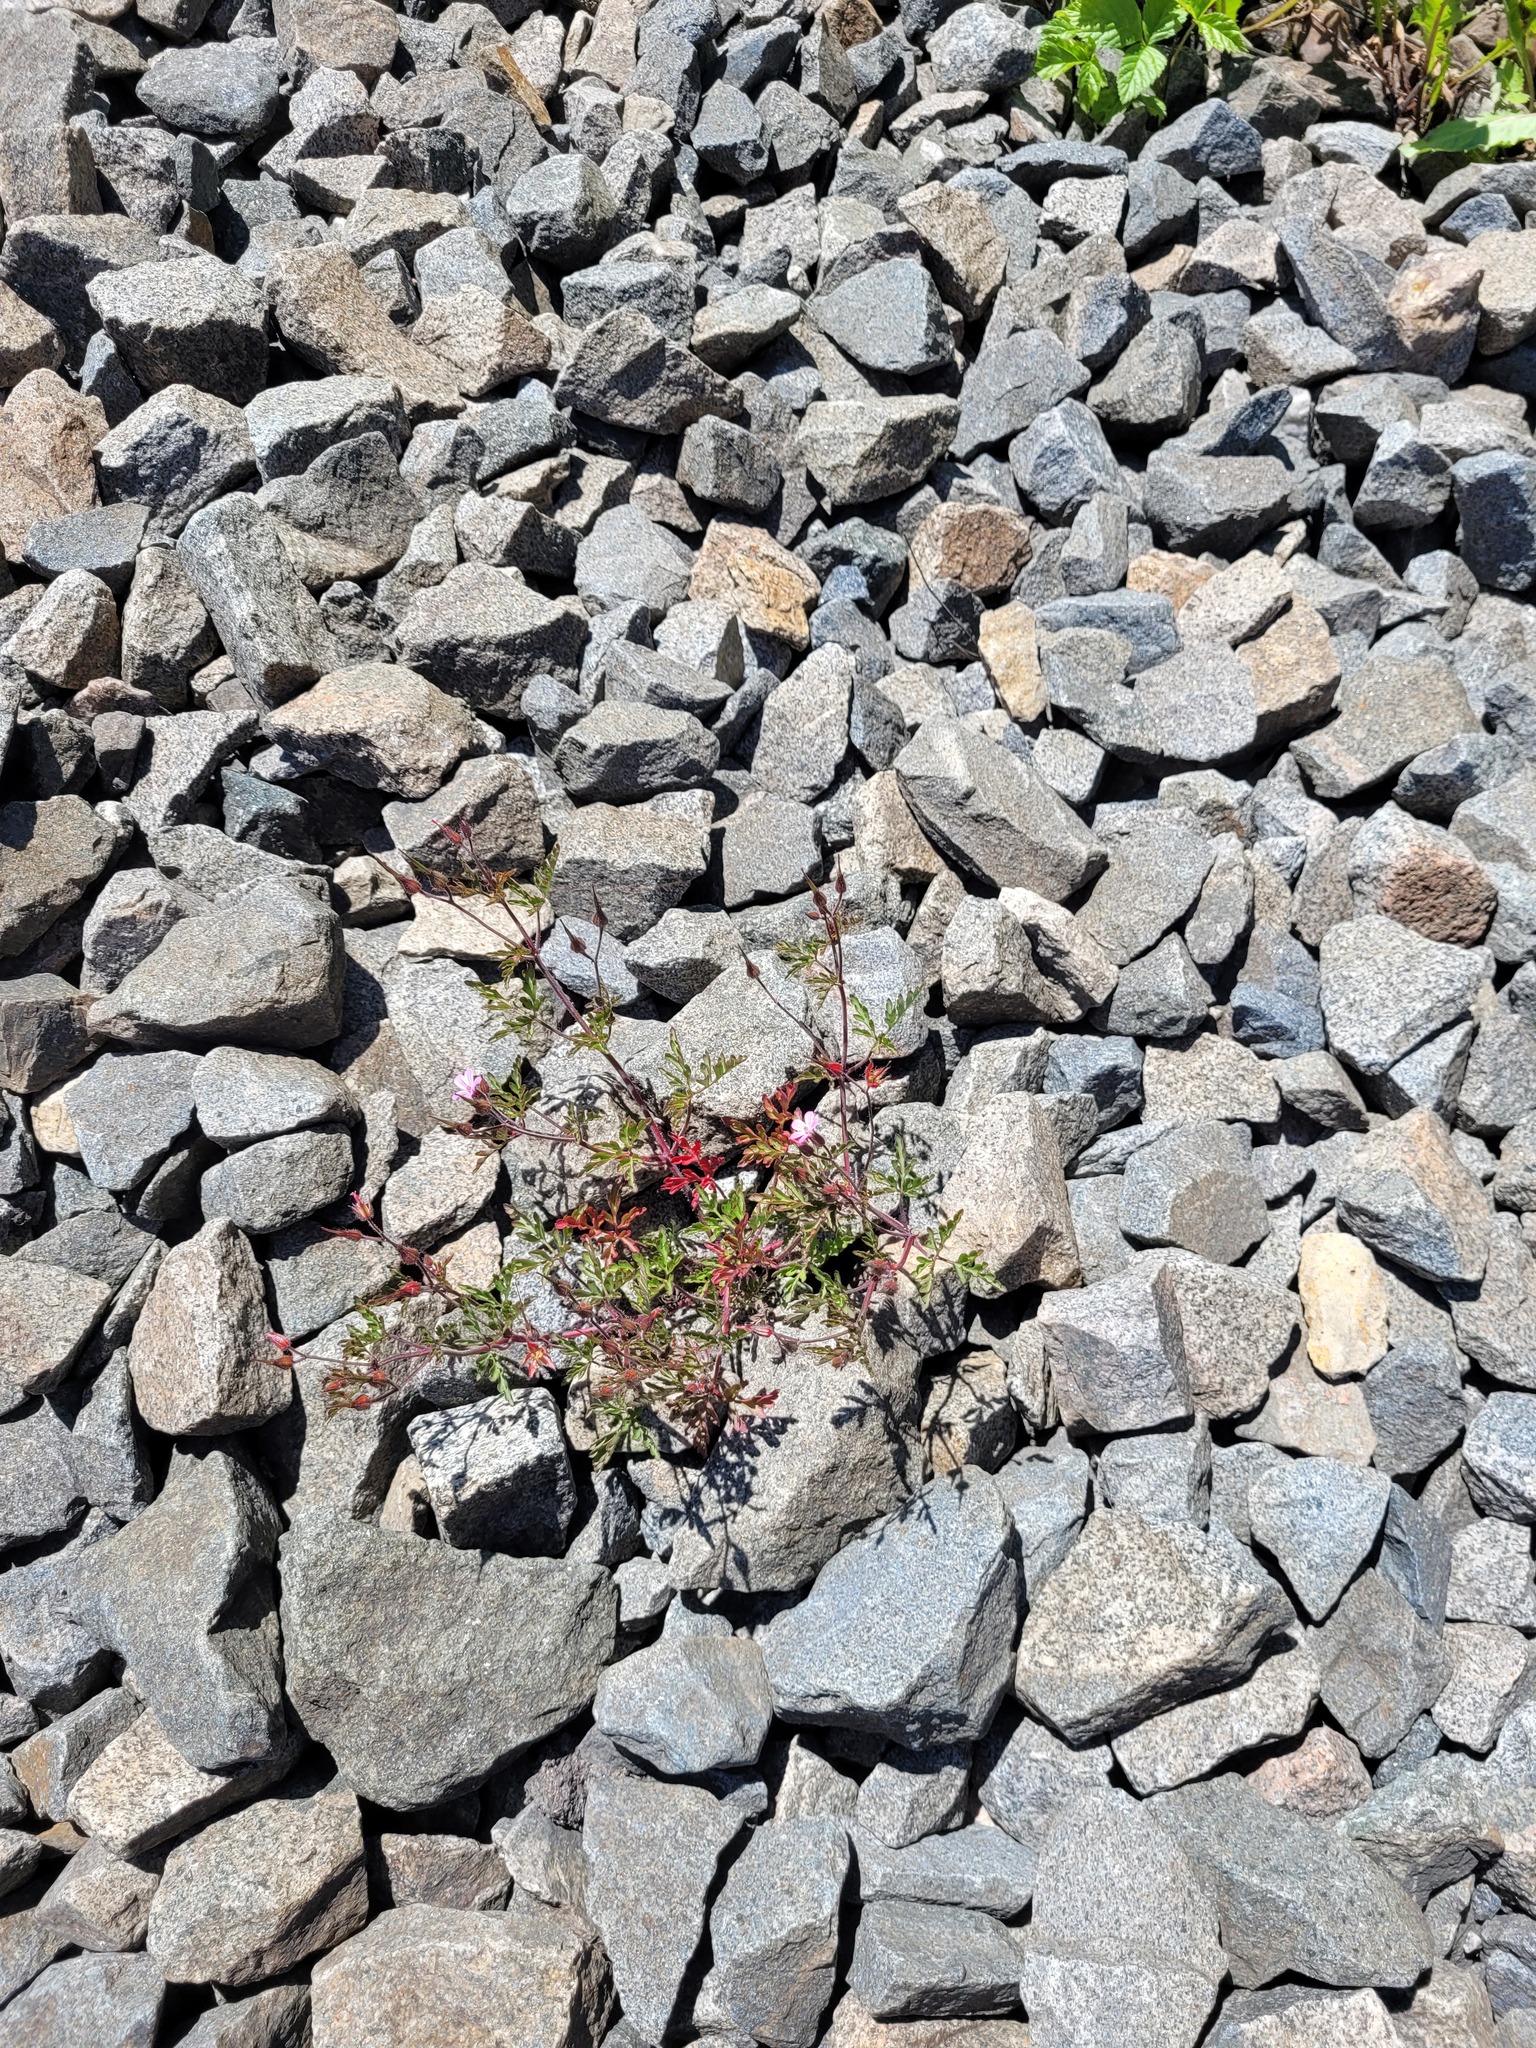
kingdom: Plantae
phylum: Tracheophyta
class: Magnoliopsida
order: Geraniales
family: Geraniaceae
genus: Geranium
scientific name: Geranium robertianum
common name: Herb-robert
